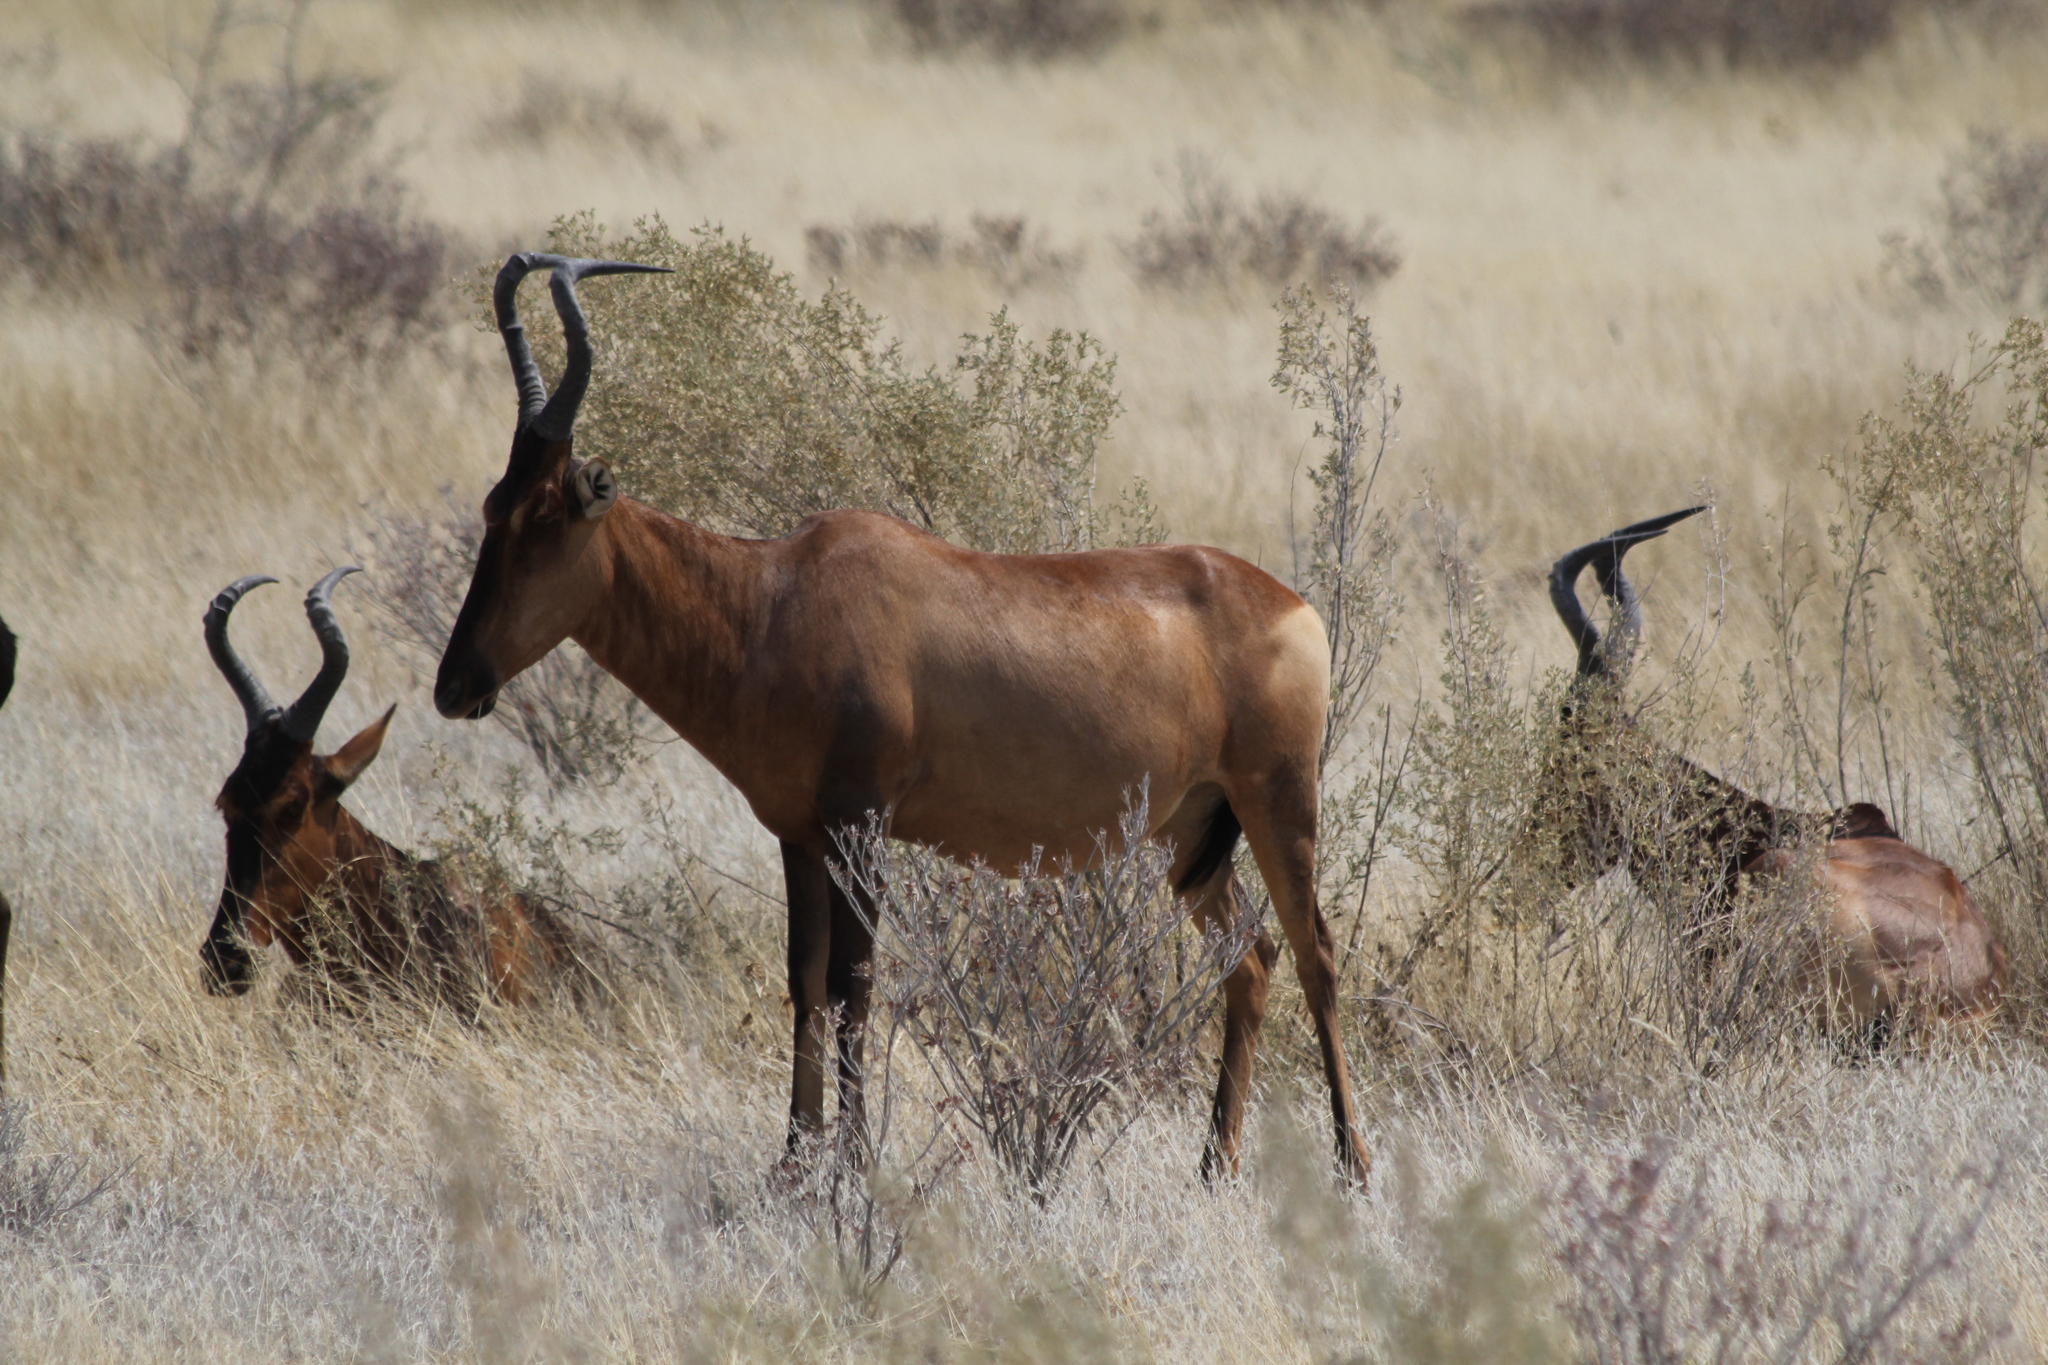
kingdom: Animalia
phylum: Chordata
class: Mammalia
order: Artiodactyla
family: Bovidae
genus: Alcelaphus
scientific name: Alcelaphus caama
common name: Red hartebeest
